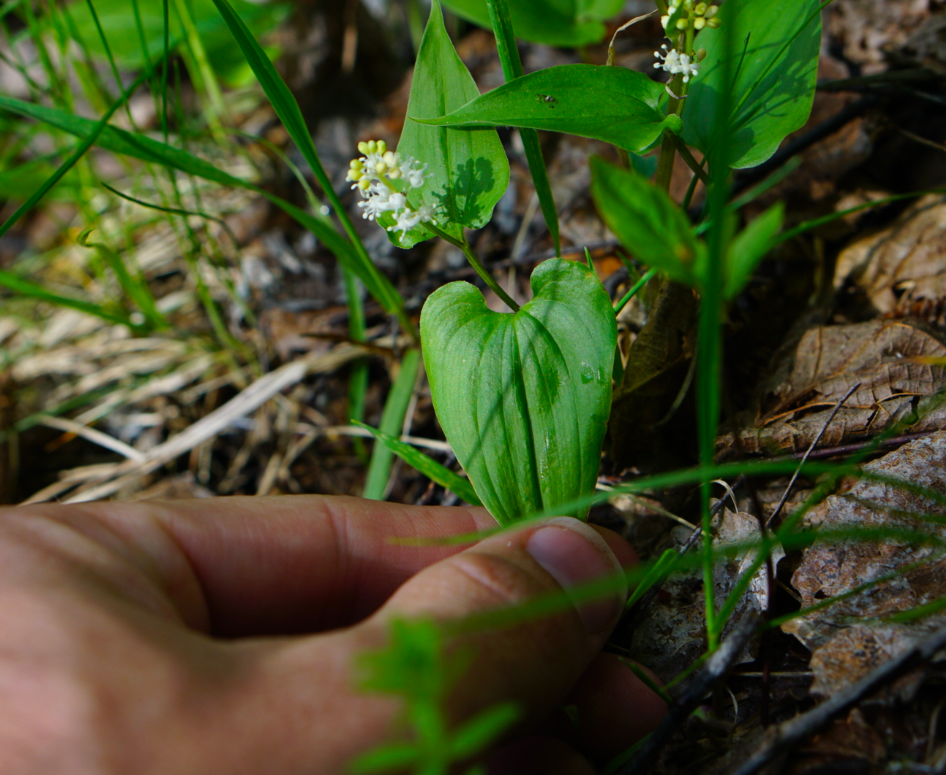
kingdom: Plantae
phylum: Tracheophyta
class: Liliopsida
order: Asparagales
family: Asparagaceae
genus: Maianthemum
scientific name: Maianthemum bifolium
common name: May lily
